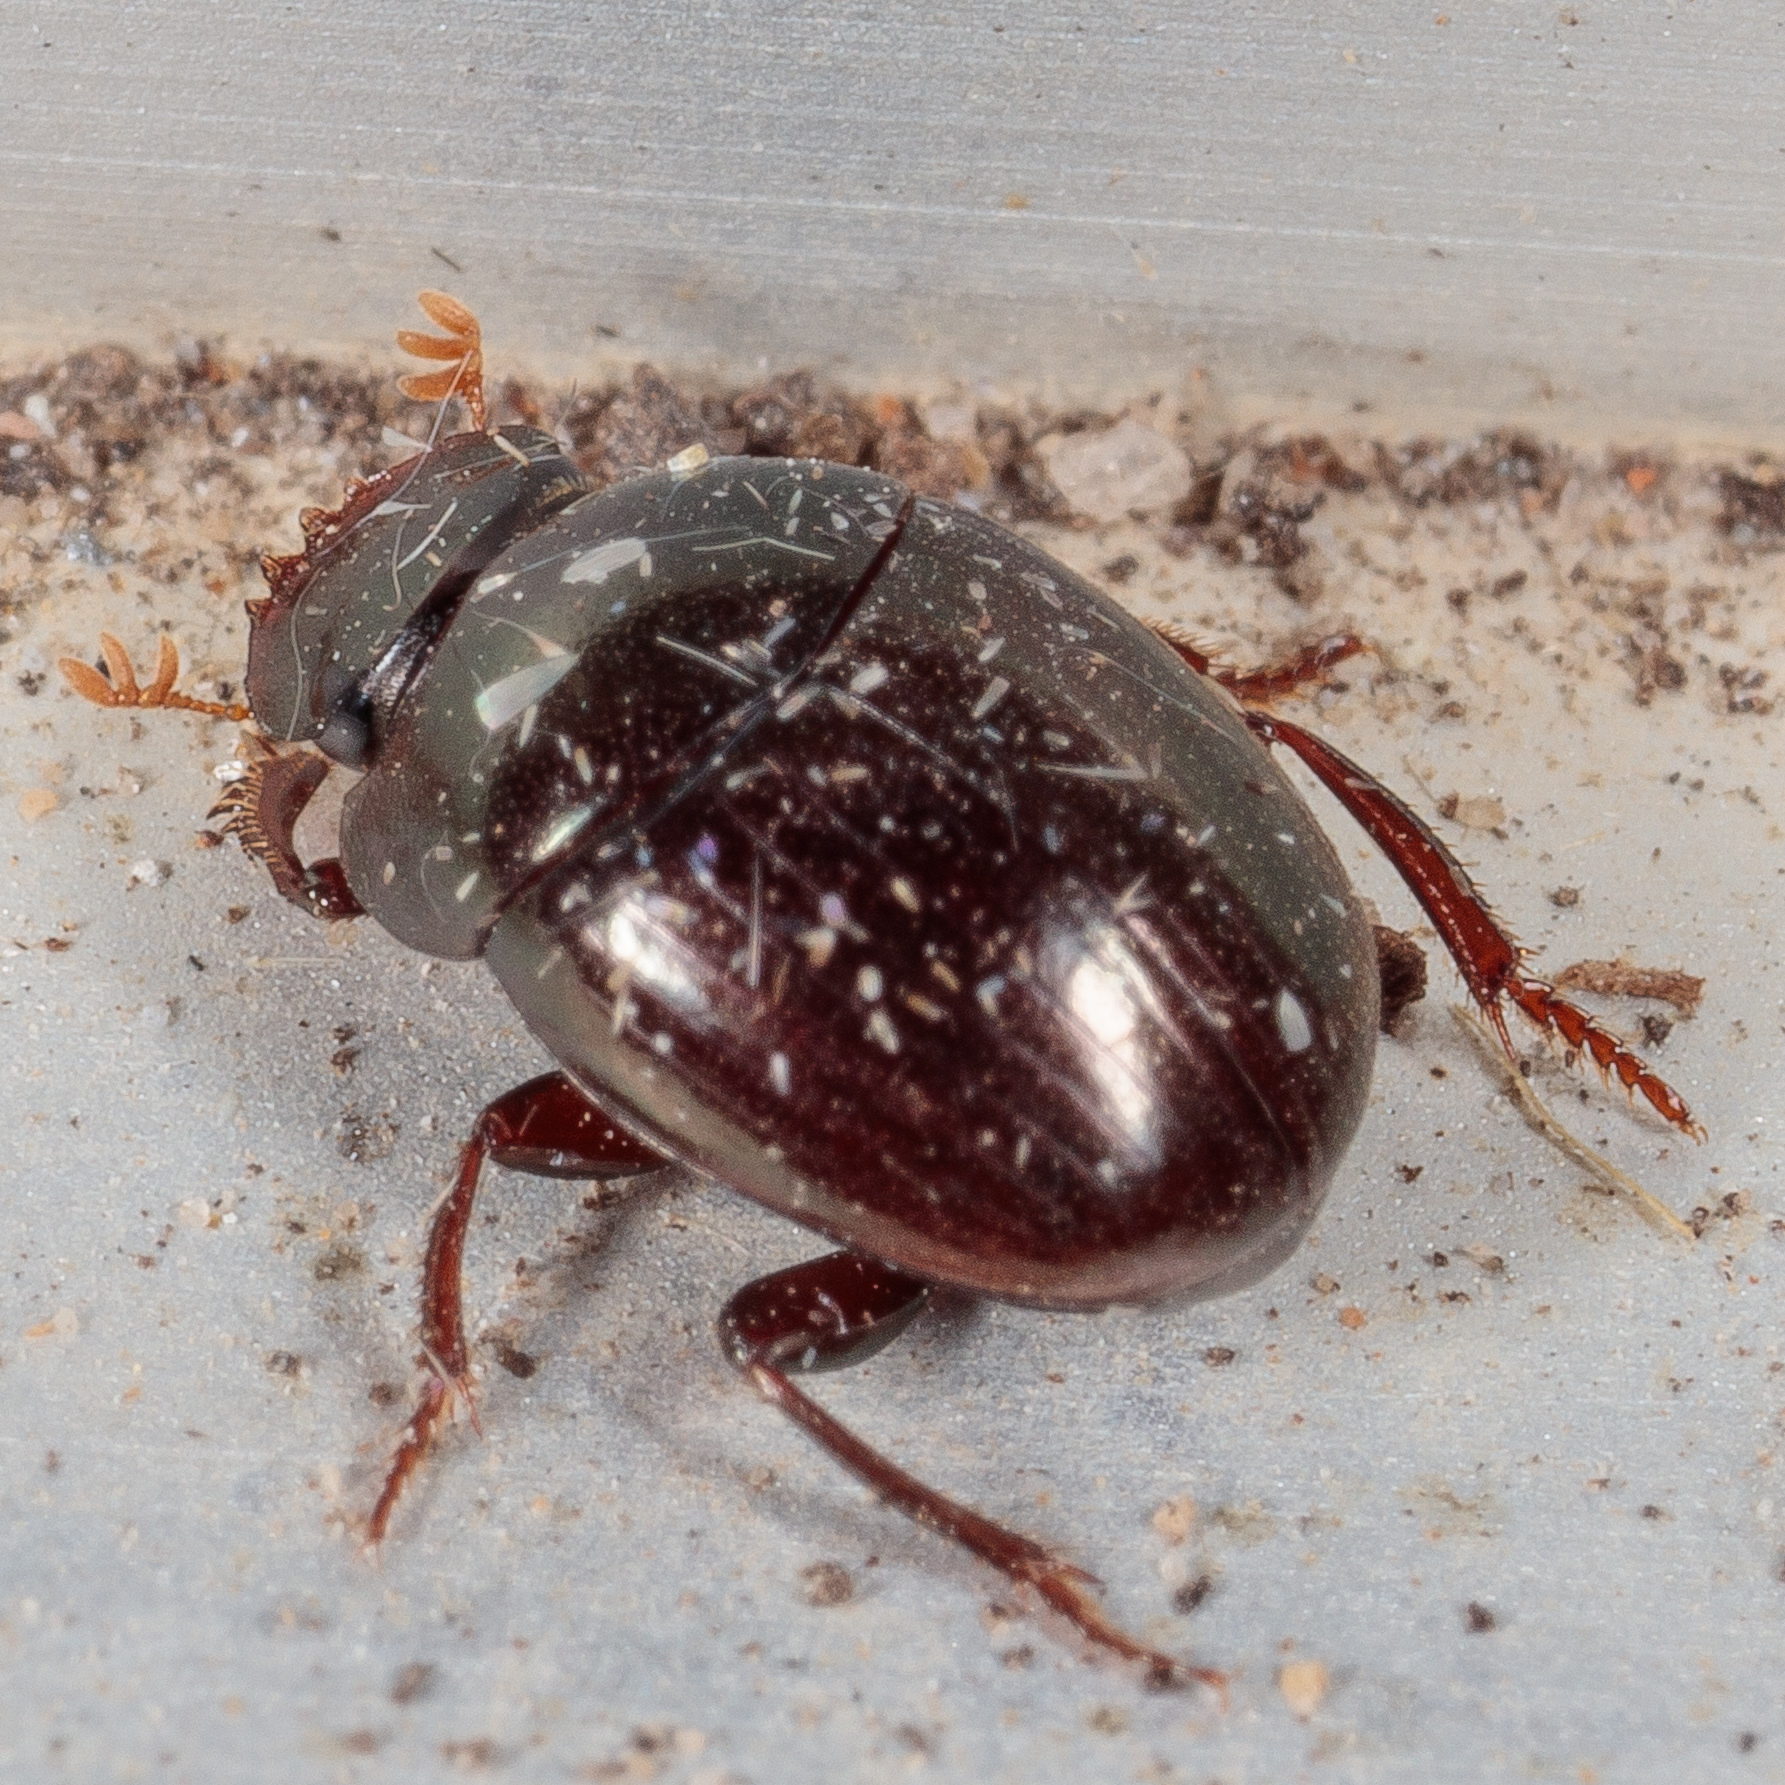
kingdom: Animalia
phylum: Arthropoda
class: Insecta
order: Coleoptera
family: Scarabaeidae
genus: Pseudocanthon
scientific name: Pseudocanthon perplexus
